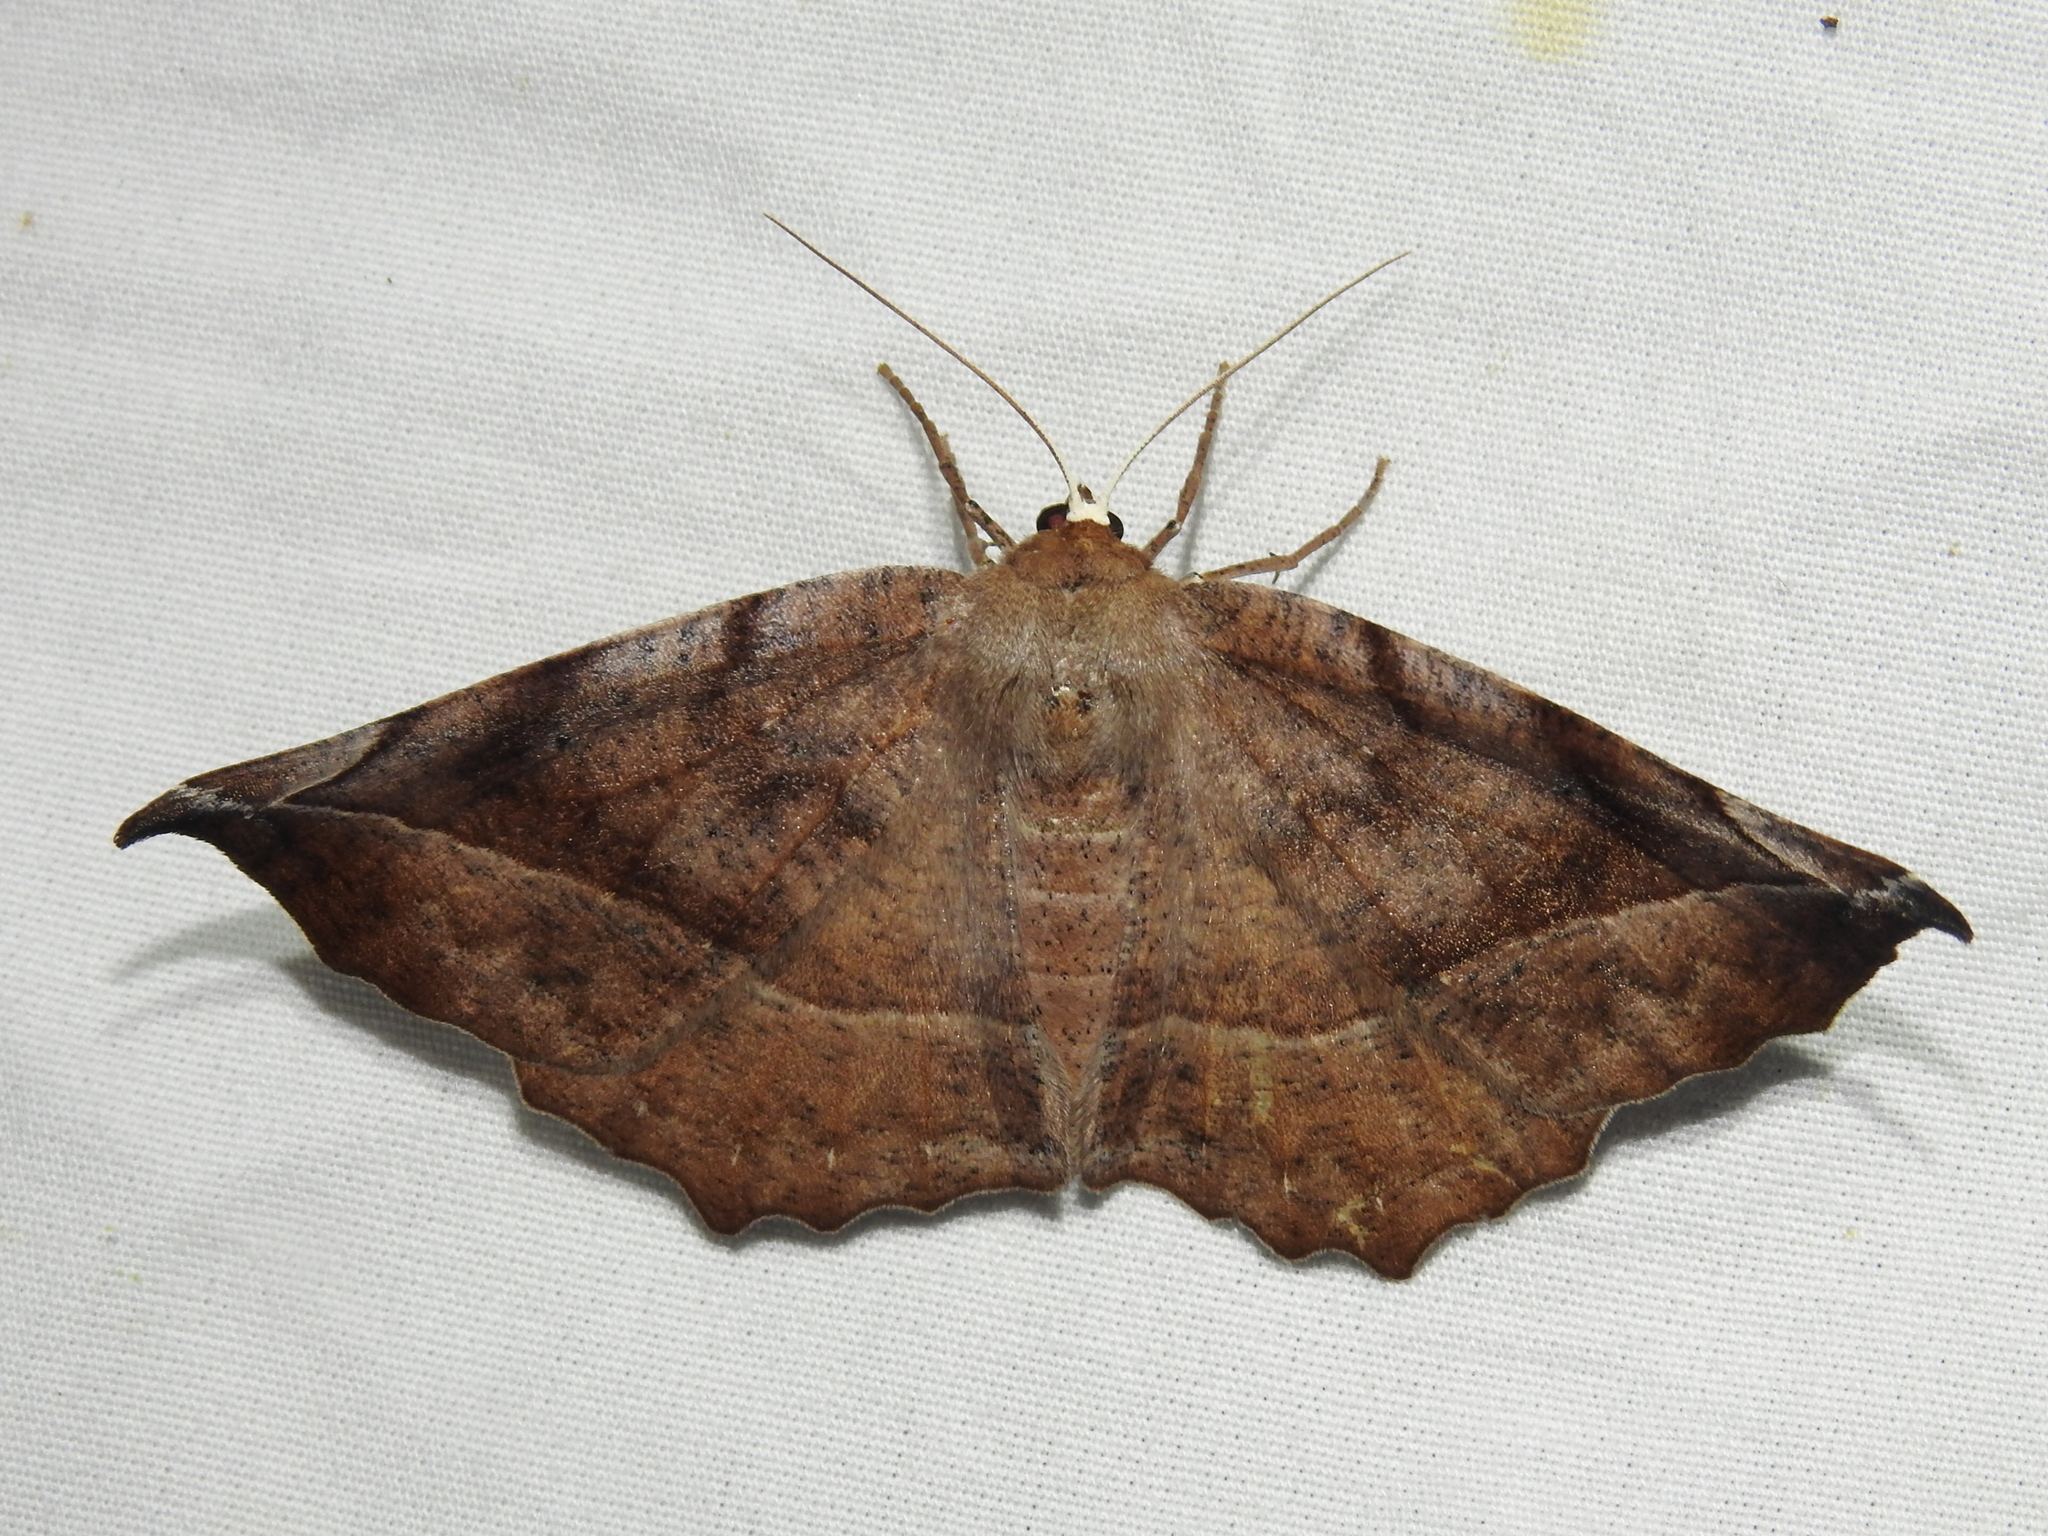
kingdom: Animalia
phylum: Arthropoda
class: Insecta
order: Lepidoptera
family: Geometridae
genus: Eutrapela
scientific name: Eutrapela clemataria
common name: Curved-toothed geometer
